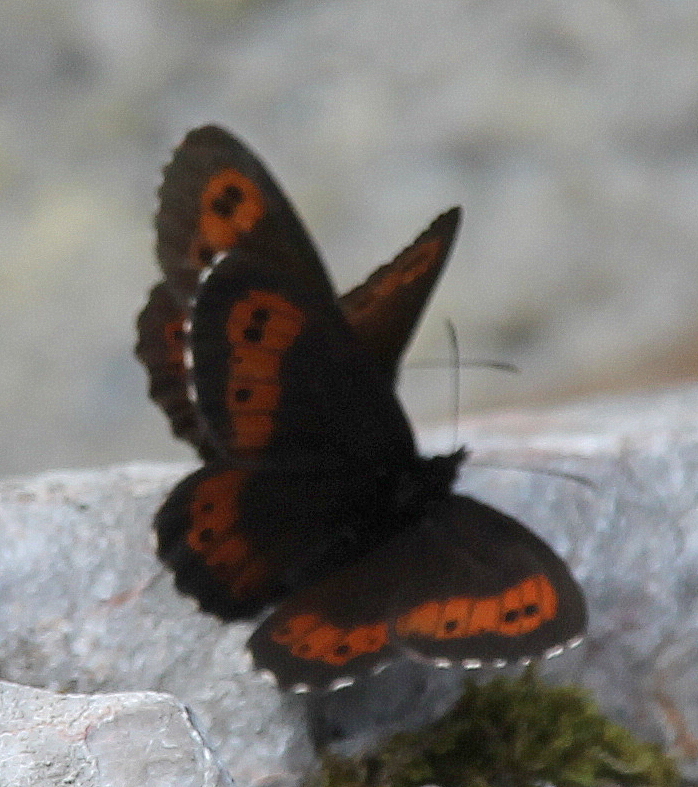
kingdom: Animalia
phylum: Arthropoda
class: Insecta
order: Lepidoptera
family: Nymphalidae
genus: Erebia
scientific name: Erebia euryale
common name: Large ringlet
